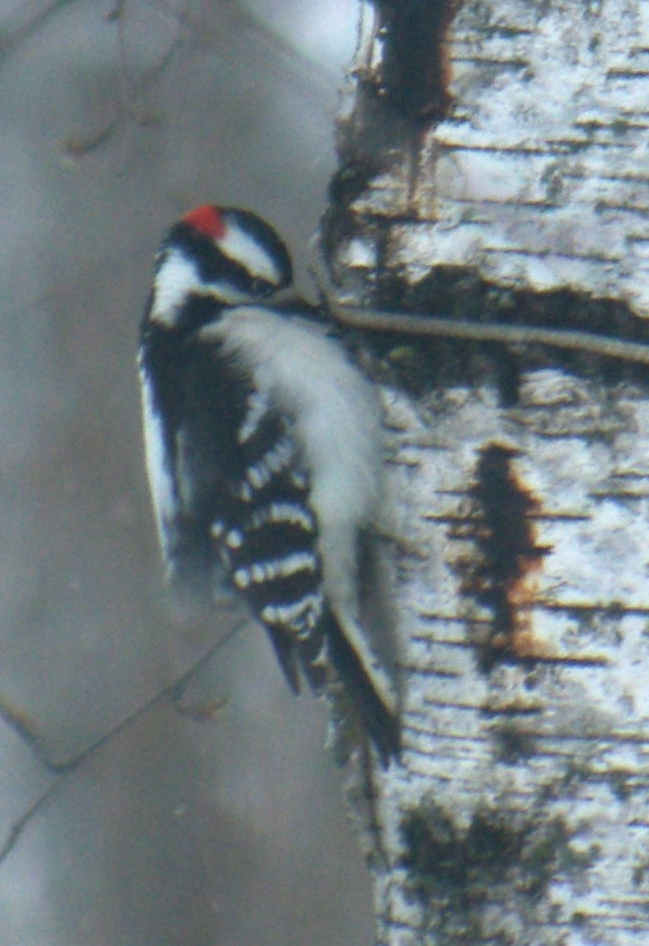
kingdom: Animalia
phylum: Chordata
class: Aves
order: Piciformes
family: Picidae
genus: Dryobates
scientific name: Dryobates pubescens
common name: Downy woodpecker
